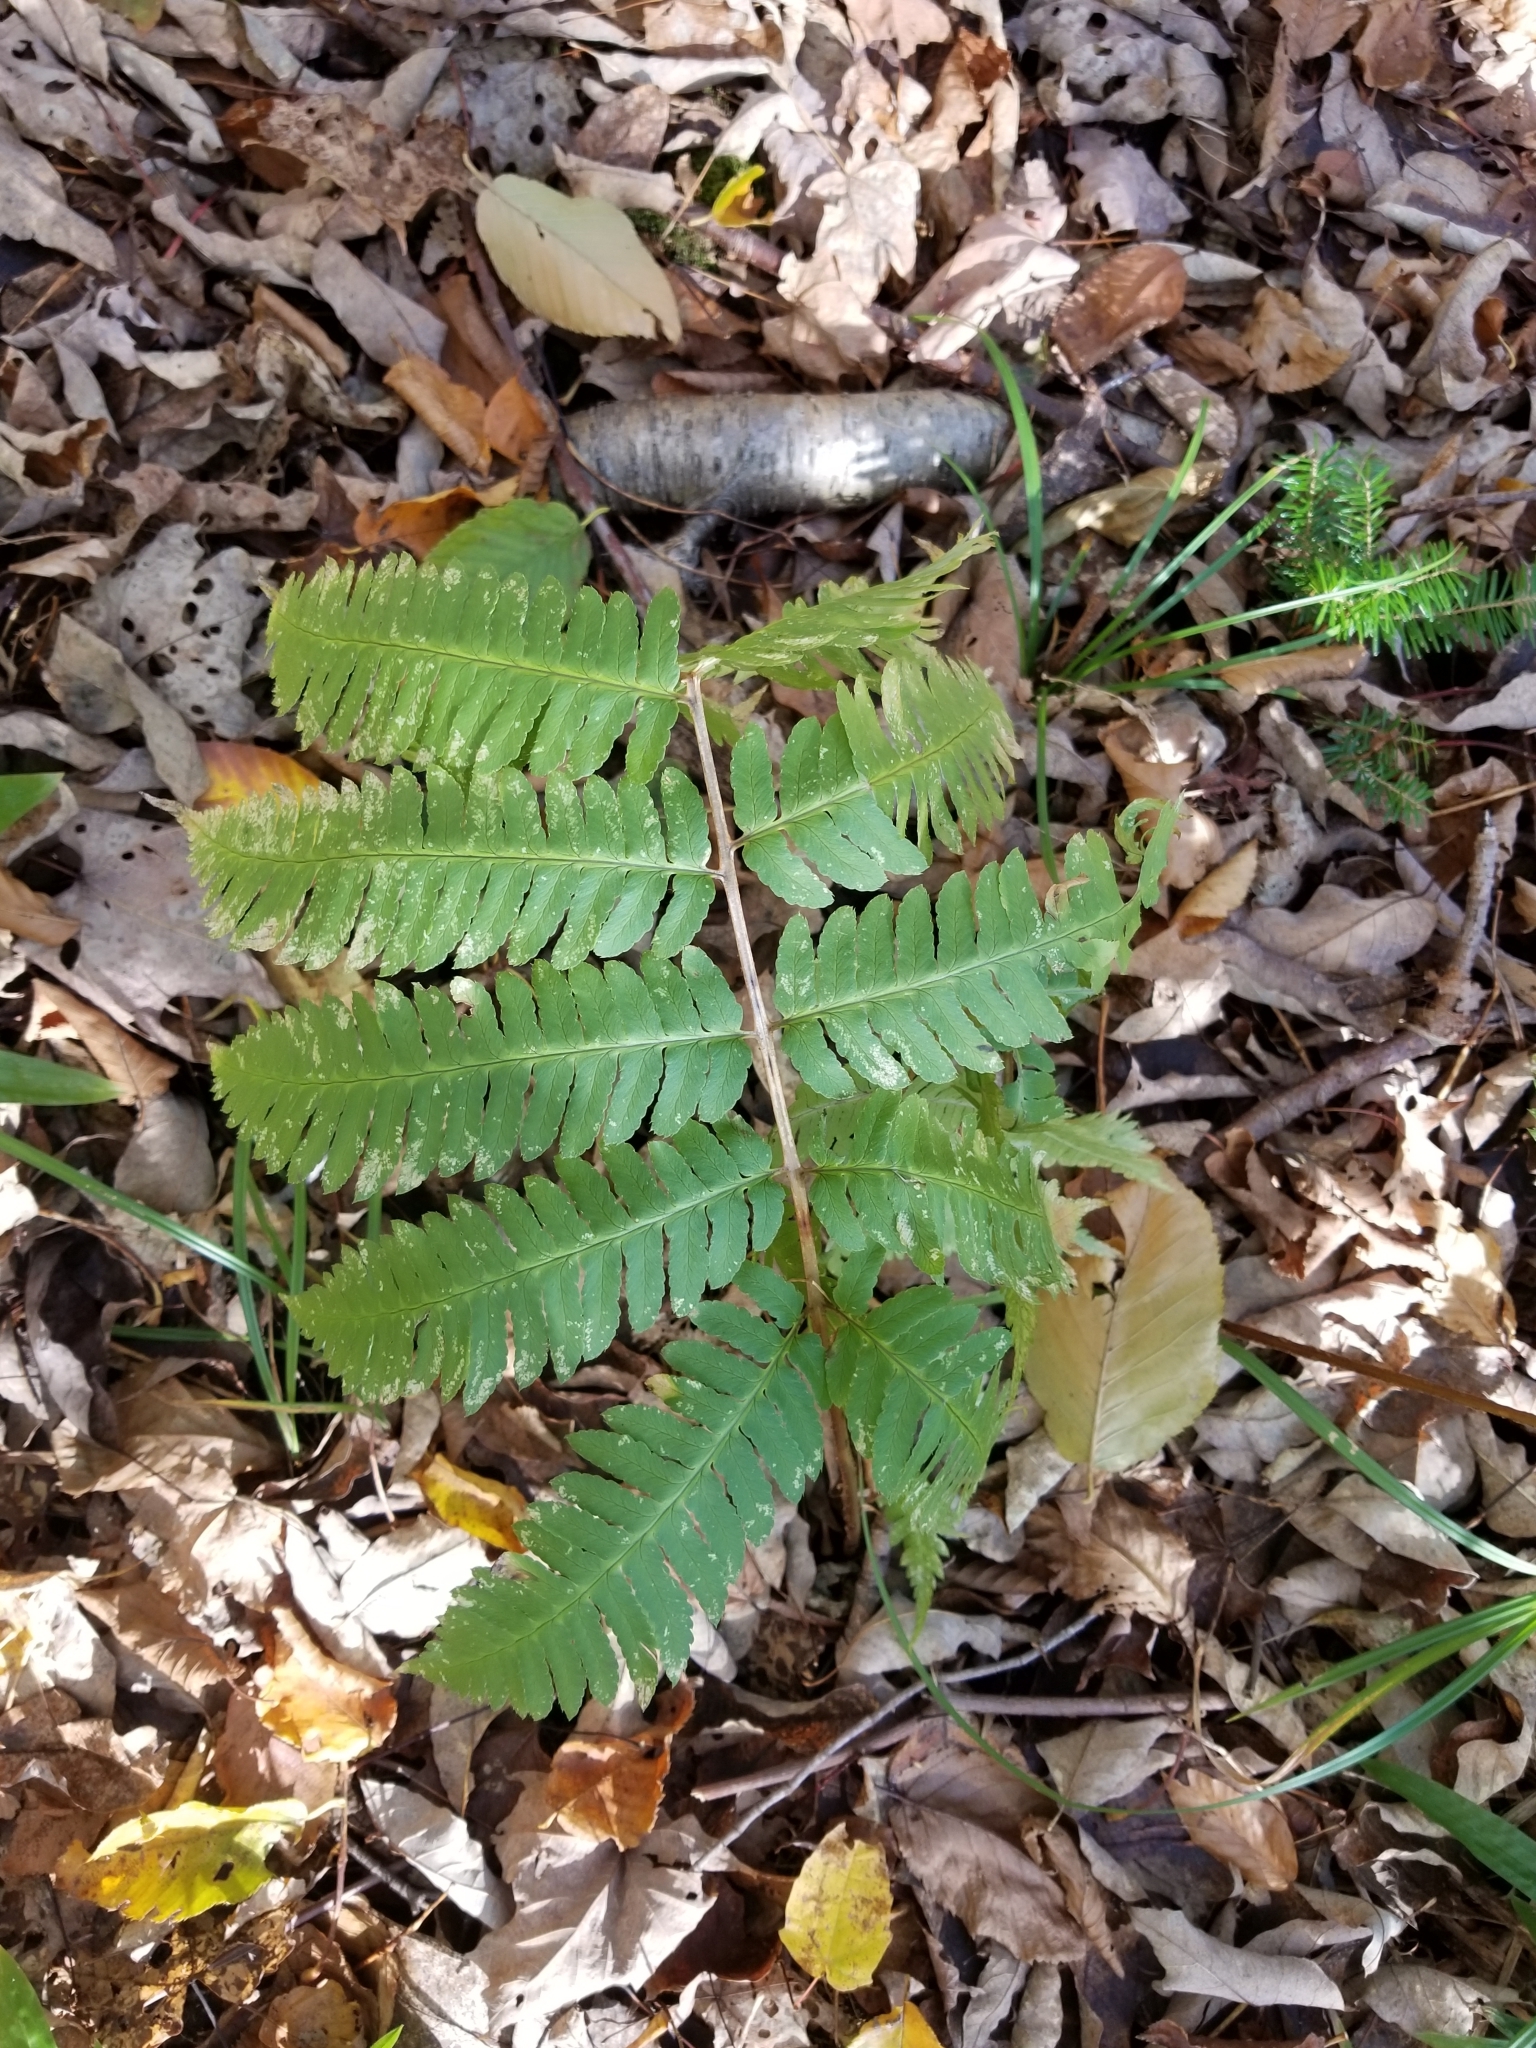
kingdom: Plantae
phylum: Tracheophyta
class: Polypodiopsida
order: Polypodiales
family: Dryopteridaceae
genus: Dryopteris
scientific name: Dryopteris goldieana
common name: Goldie's fern
